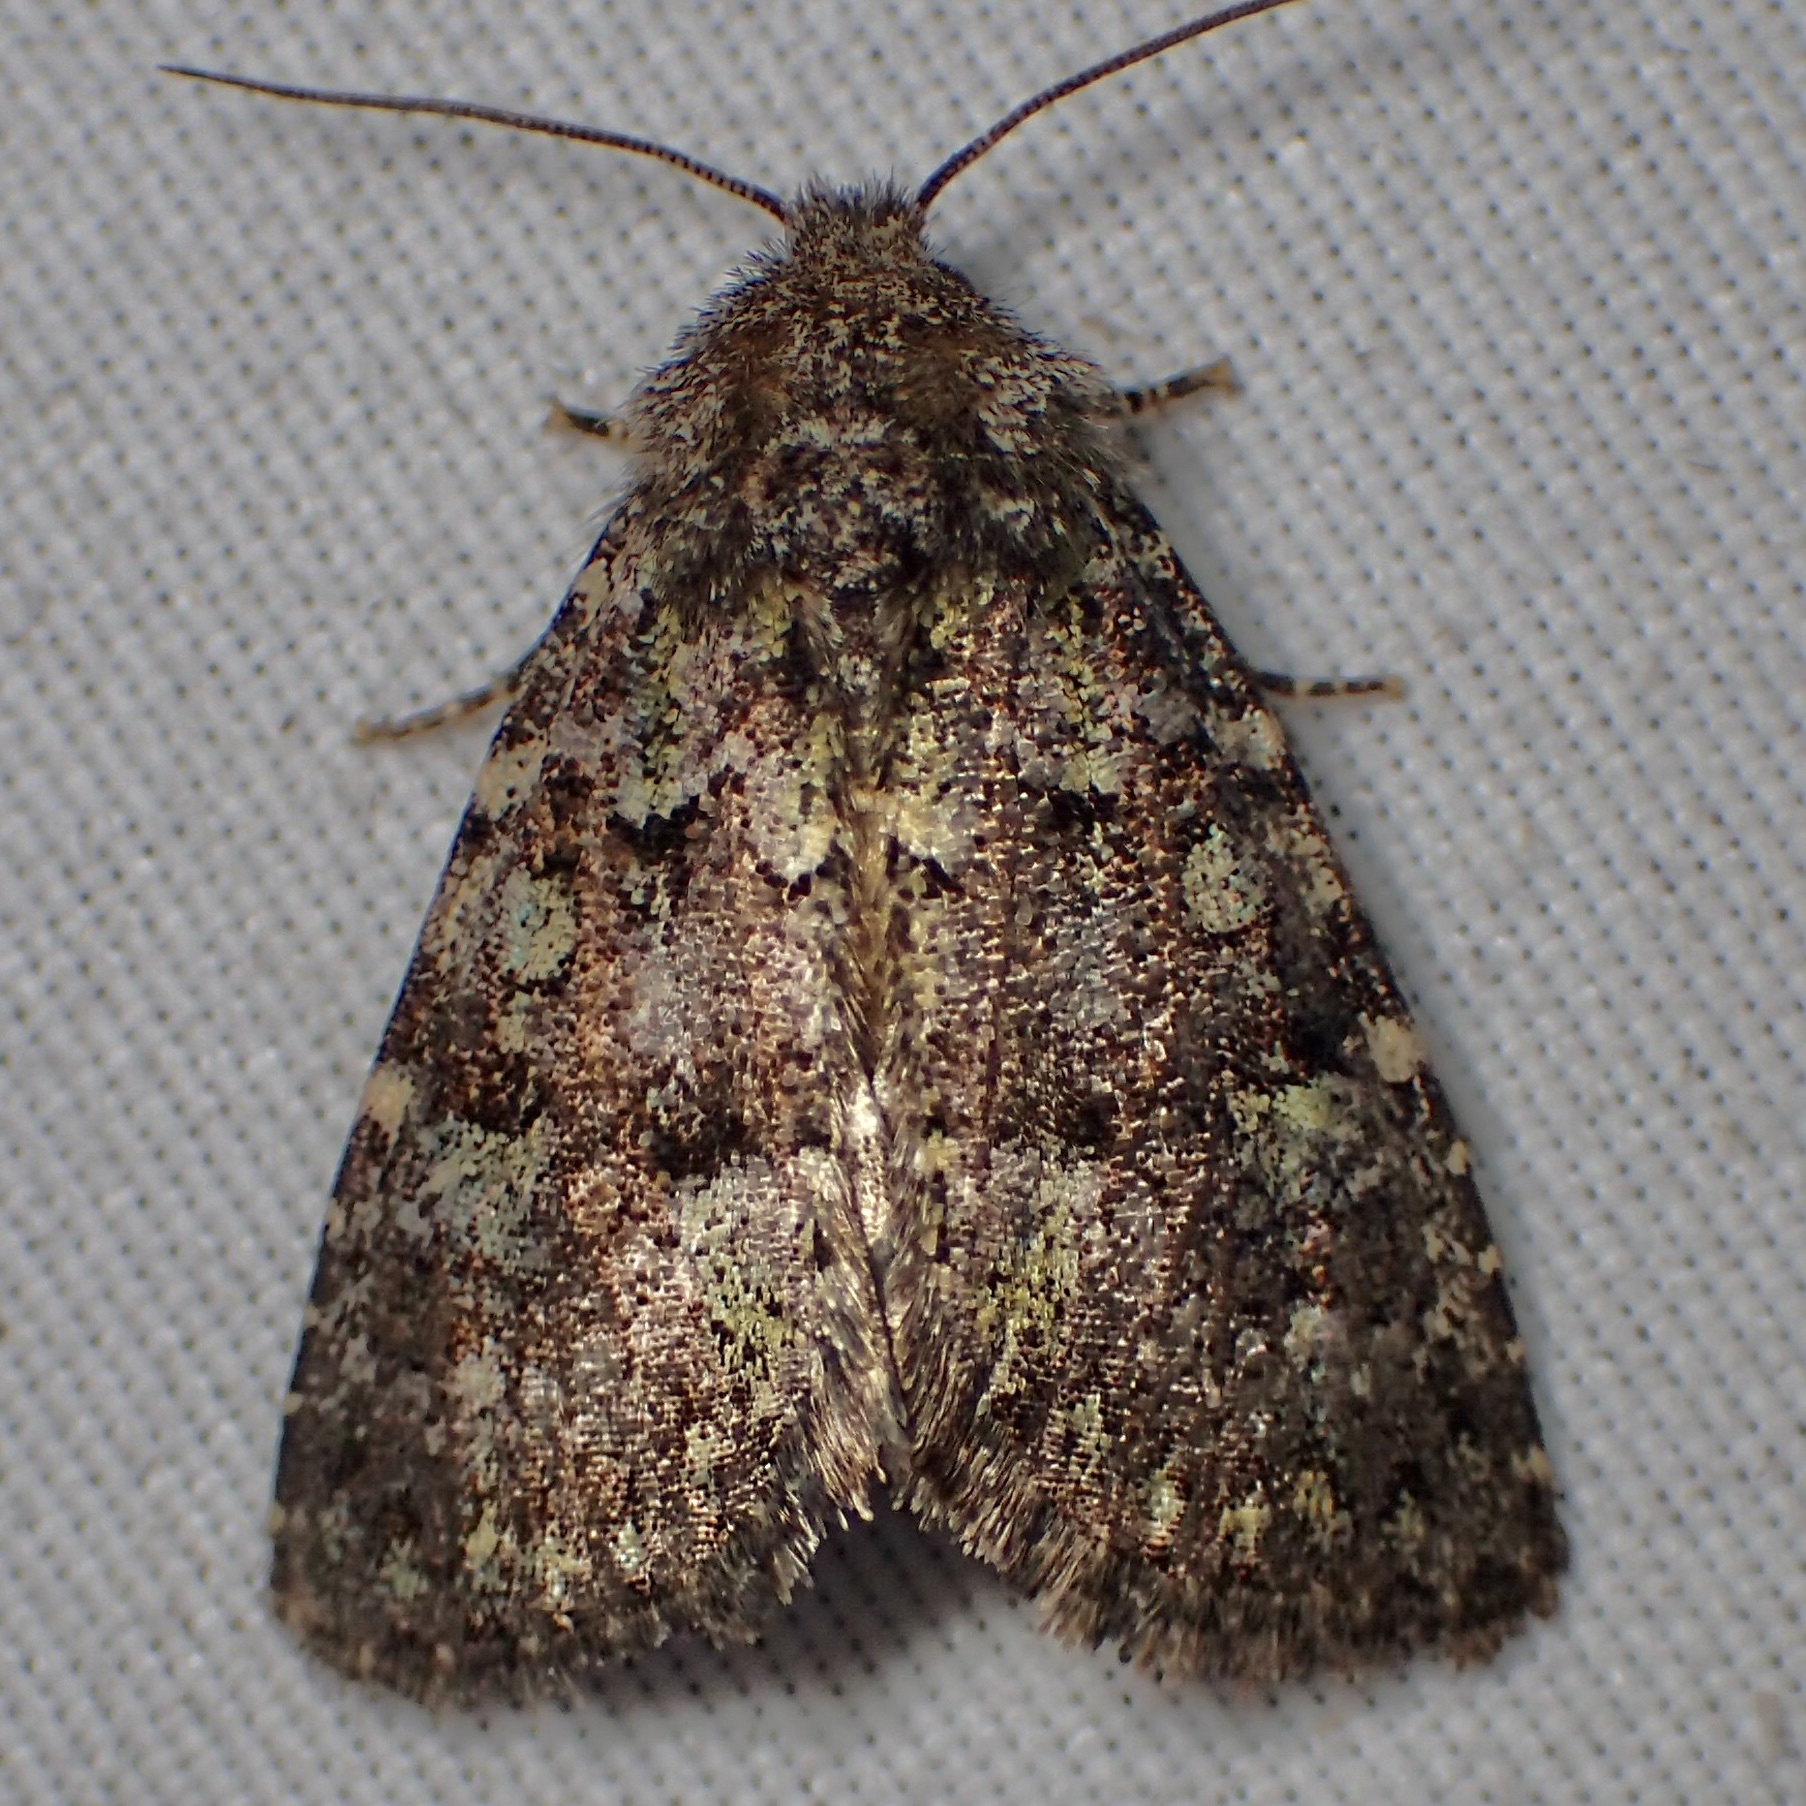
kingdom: Animalia
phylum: Arthropoda
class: Insecta
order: Lepidoptera
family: Noctuidae
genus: Paramiana
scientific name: Paramiana smaragdina
